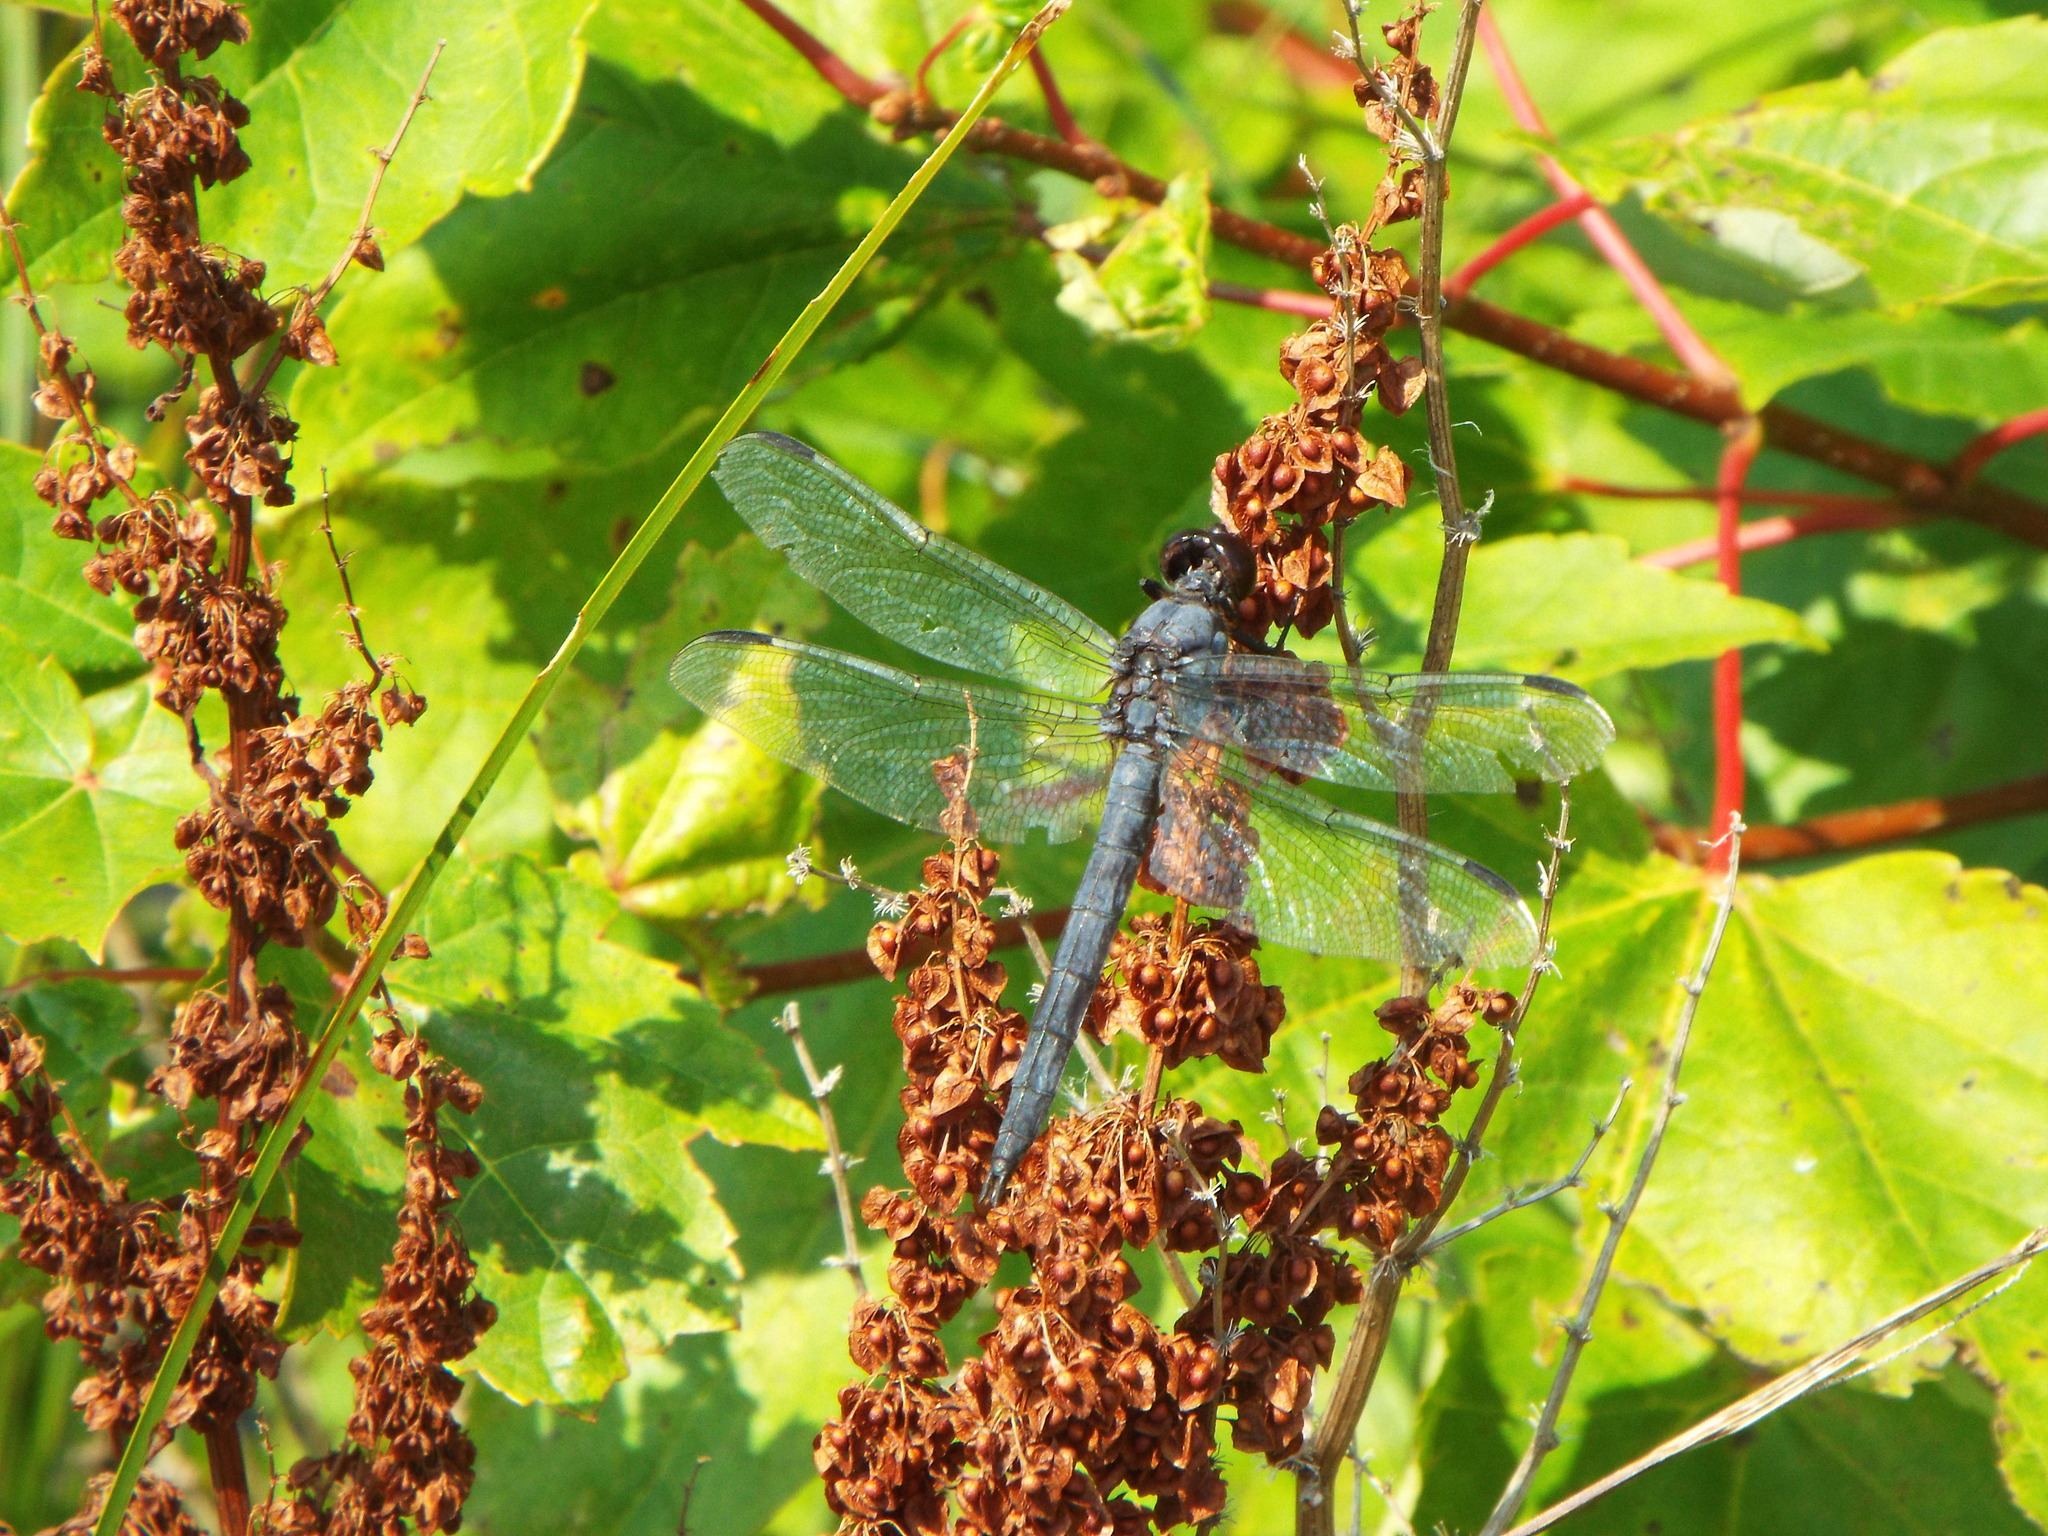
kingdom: Animalia
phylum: Arthropoda
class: Insecta
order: Odonata
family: Libellulidae
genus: Libellula
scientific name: Libellula incesta
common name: Slaty skimmer
